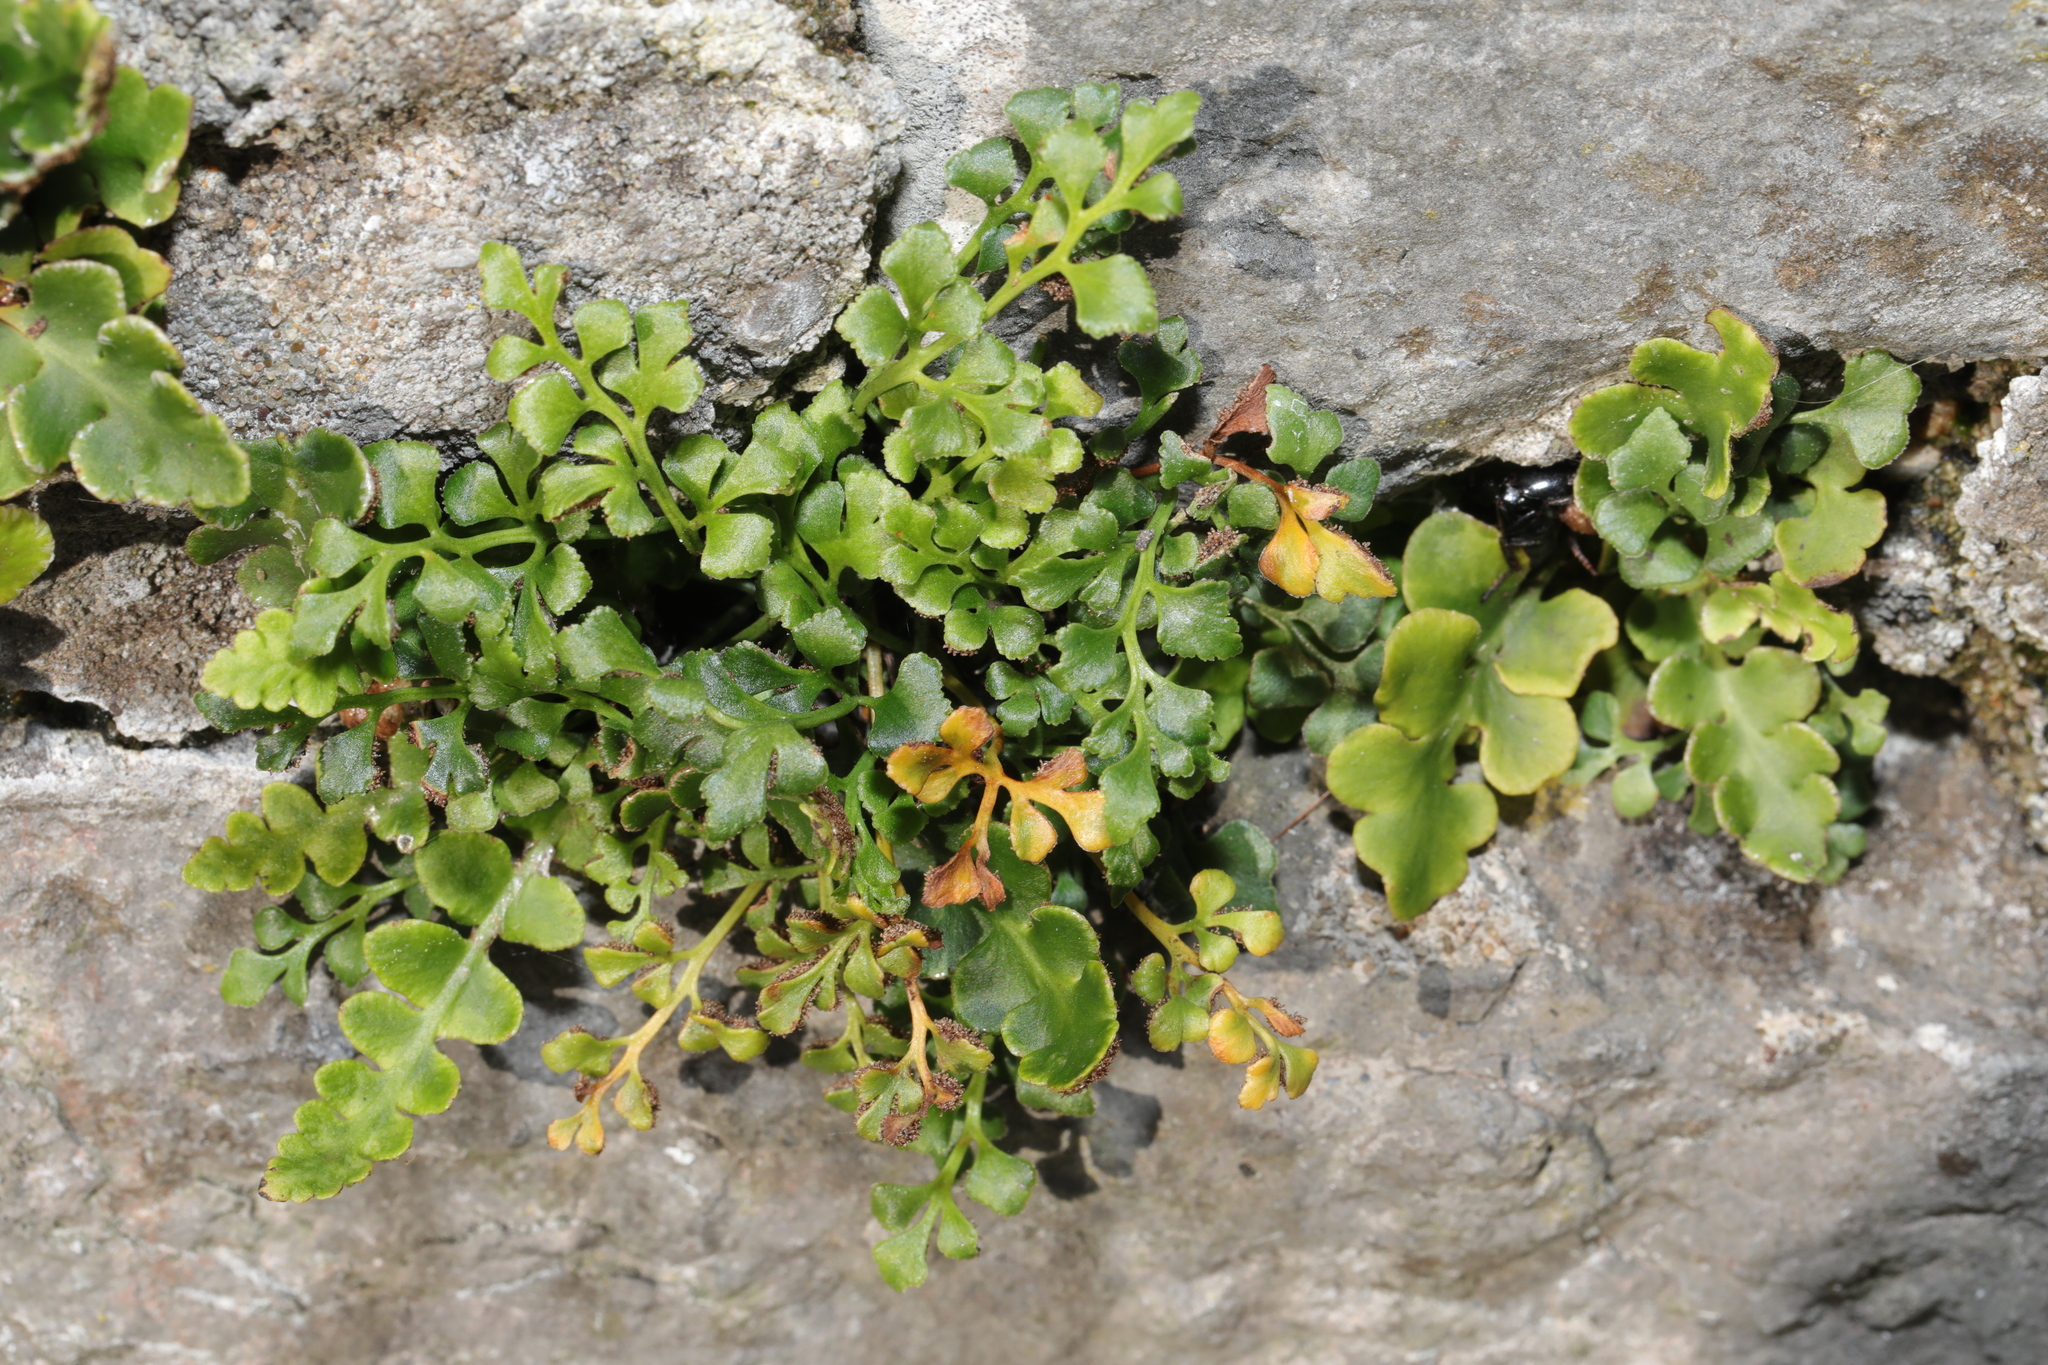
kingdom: Plantae
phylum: Tracheophyta
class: Polypodiopsida
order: Polypodiales
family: Aspleniaceae
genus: Asplenium
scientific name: Asplenium ruta-muraria
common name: Wall-rue
